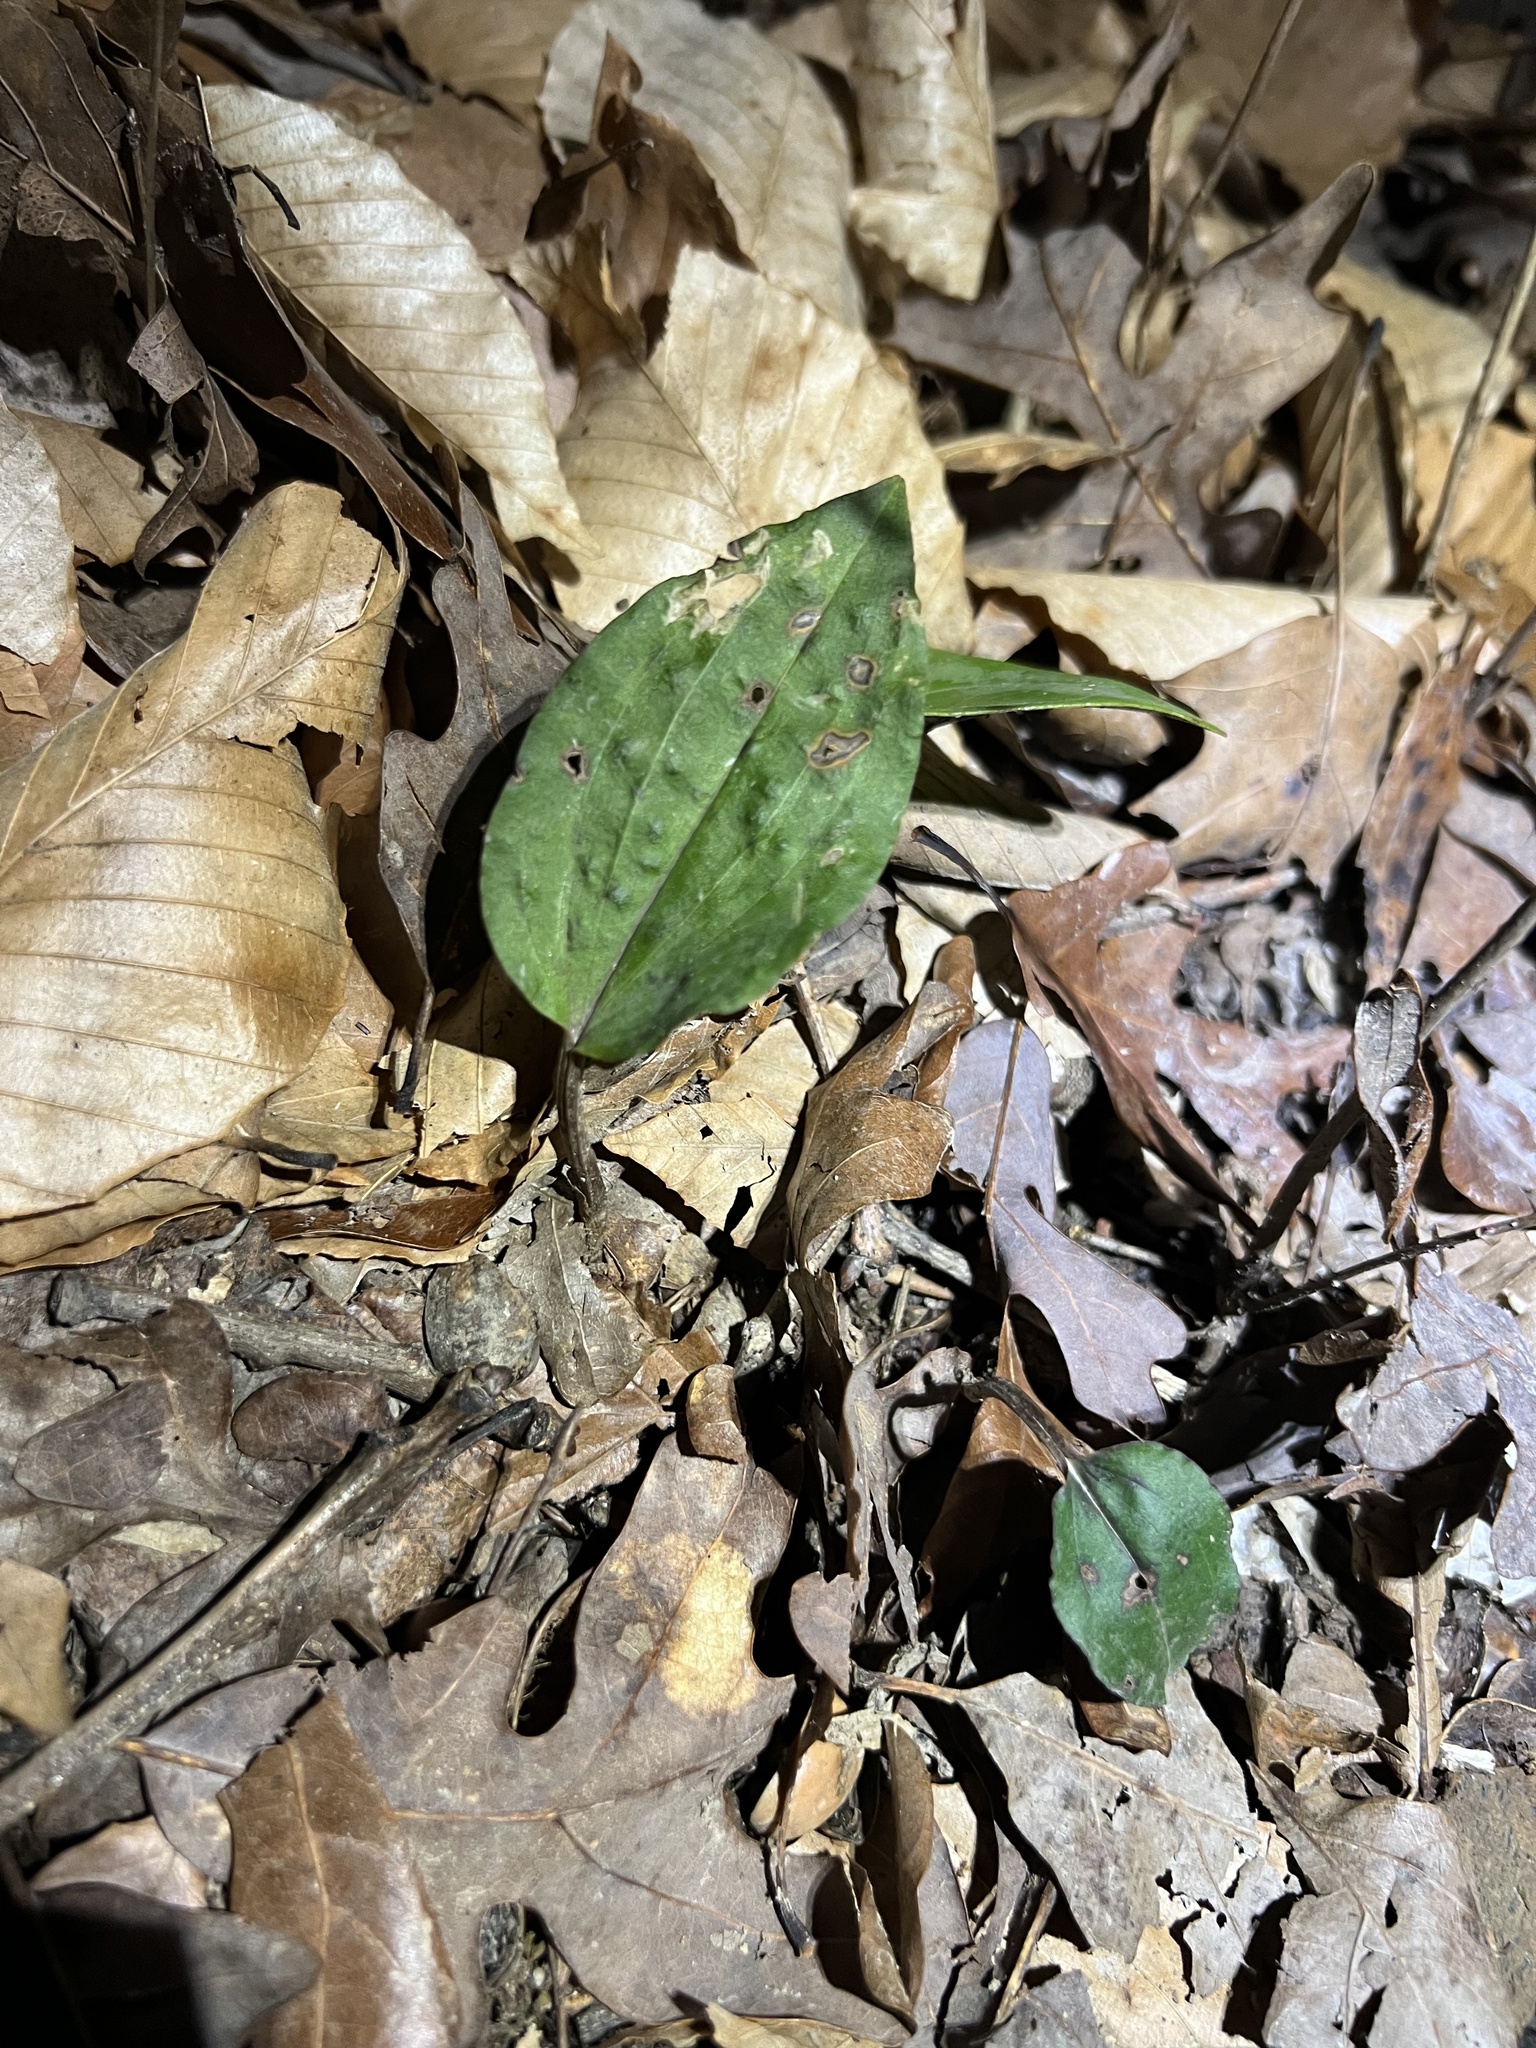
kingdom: Plantae
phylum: Tracheophyta
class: Liliopsida
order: Asparagales
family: Orchidaceae
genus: Tipularia
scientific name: Tipularia discolor
